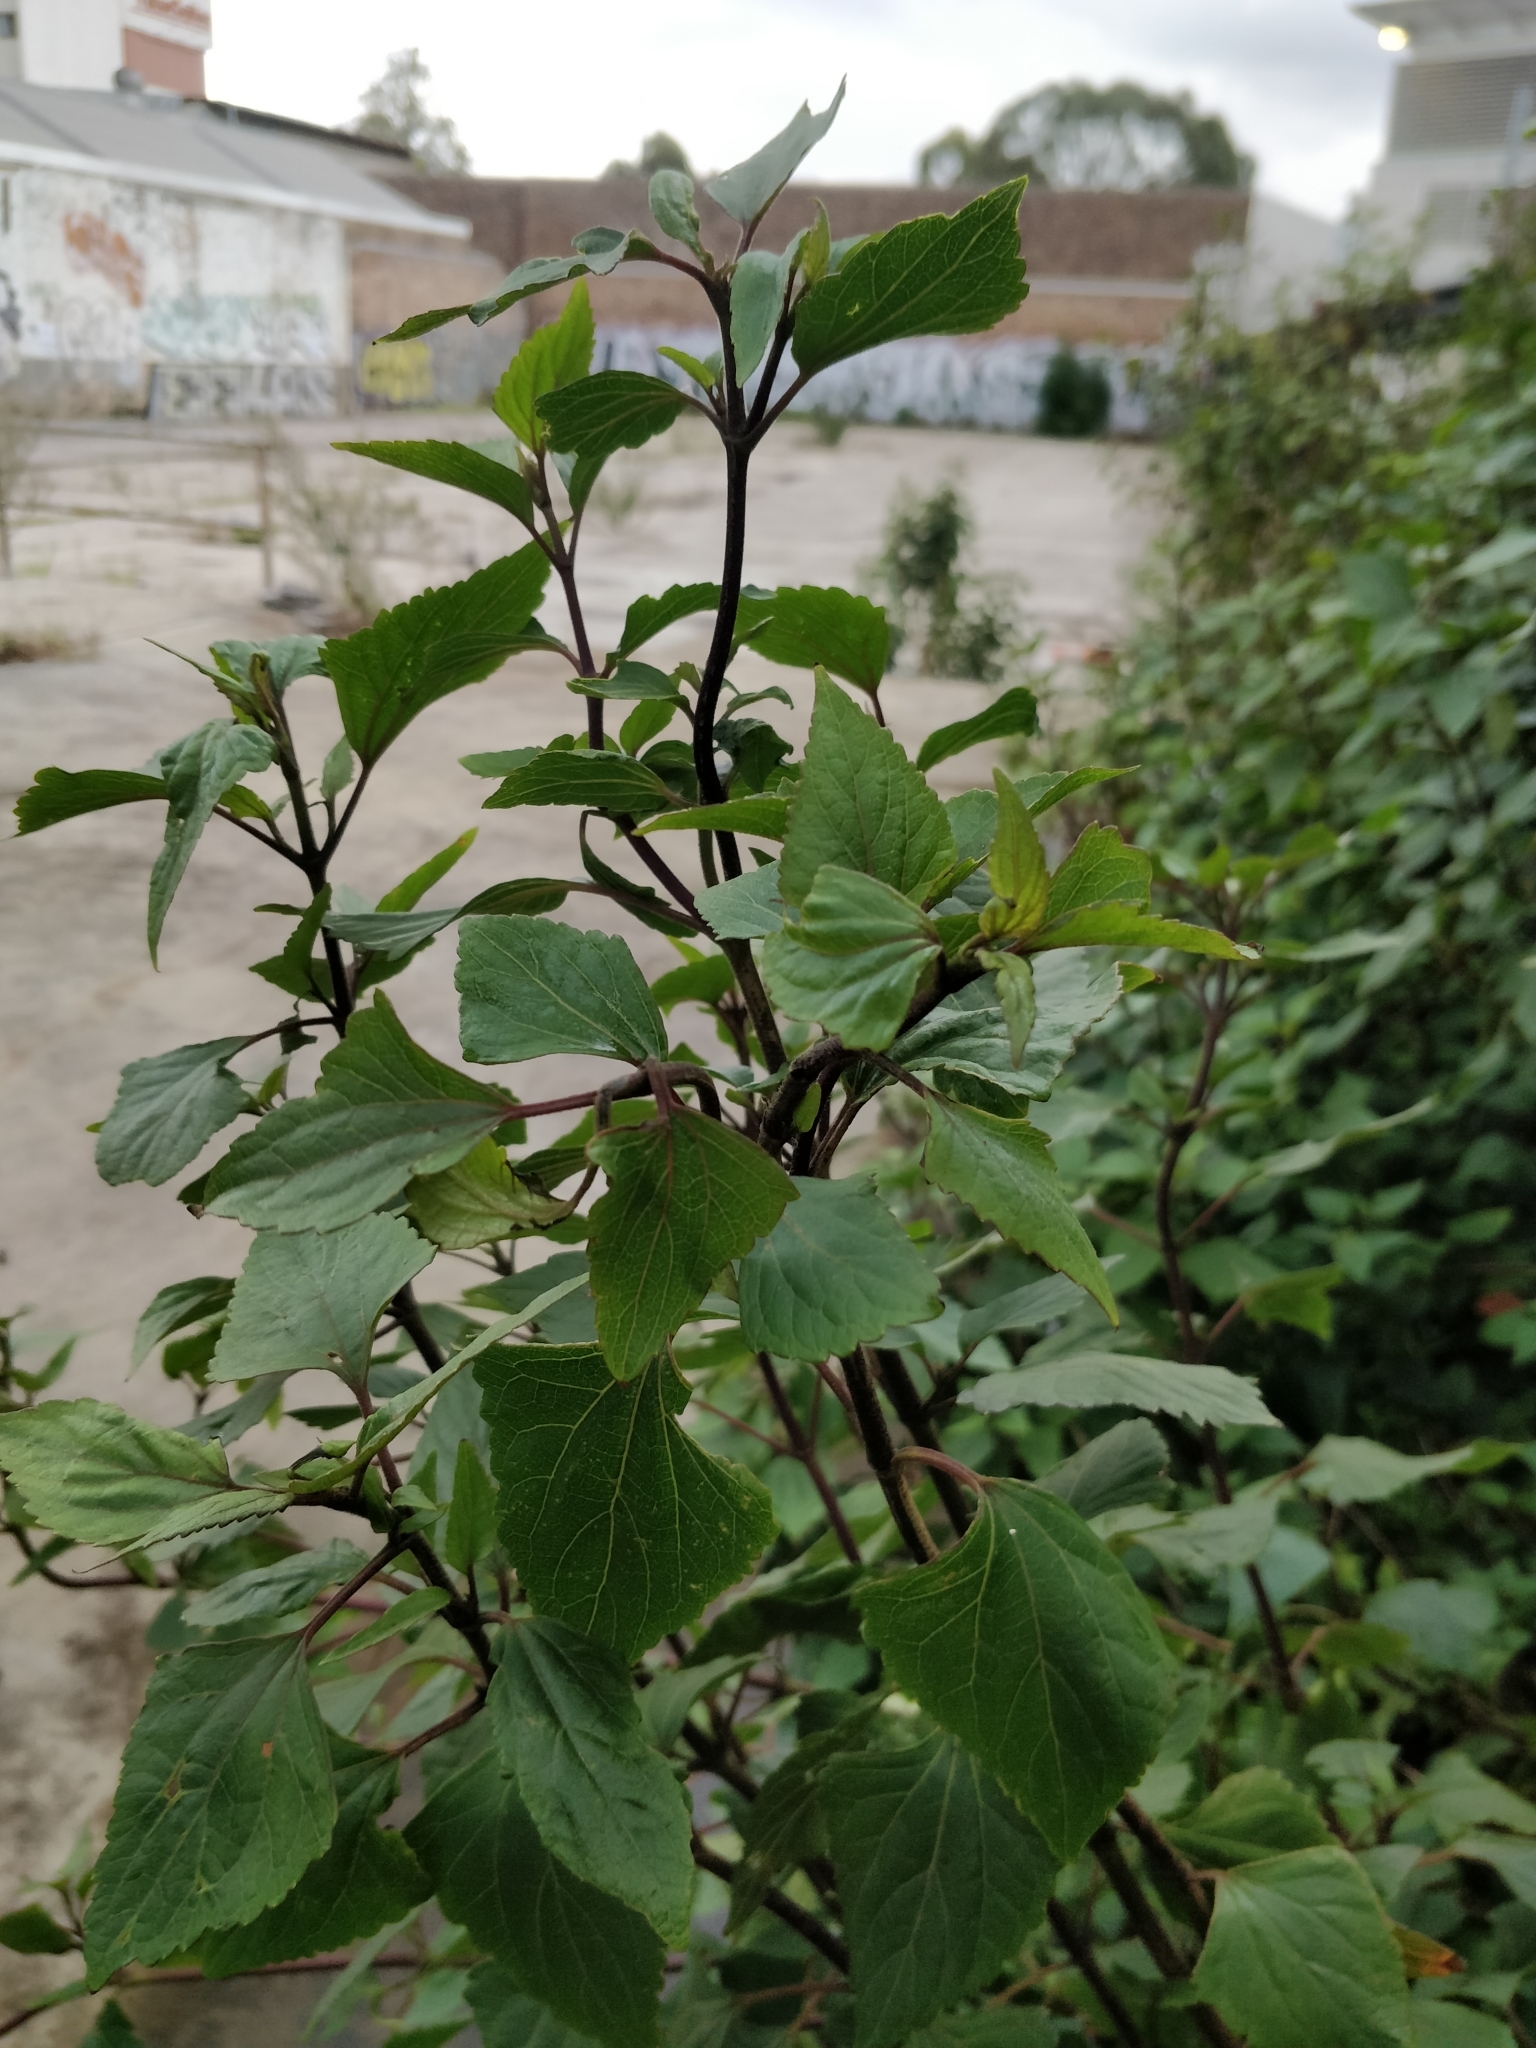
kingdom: Plantae
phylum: Tracheophyta
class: Magnoliopsida
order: Asterales
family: Asteraceae
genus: Ageratina
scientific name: Ageratina adenophora
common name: Sticky snakeroot
